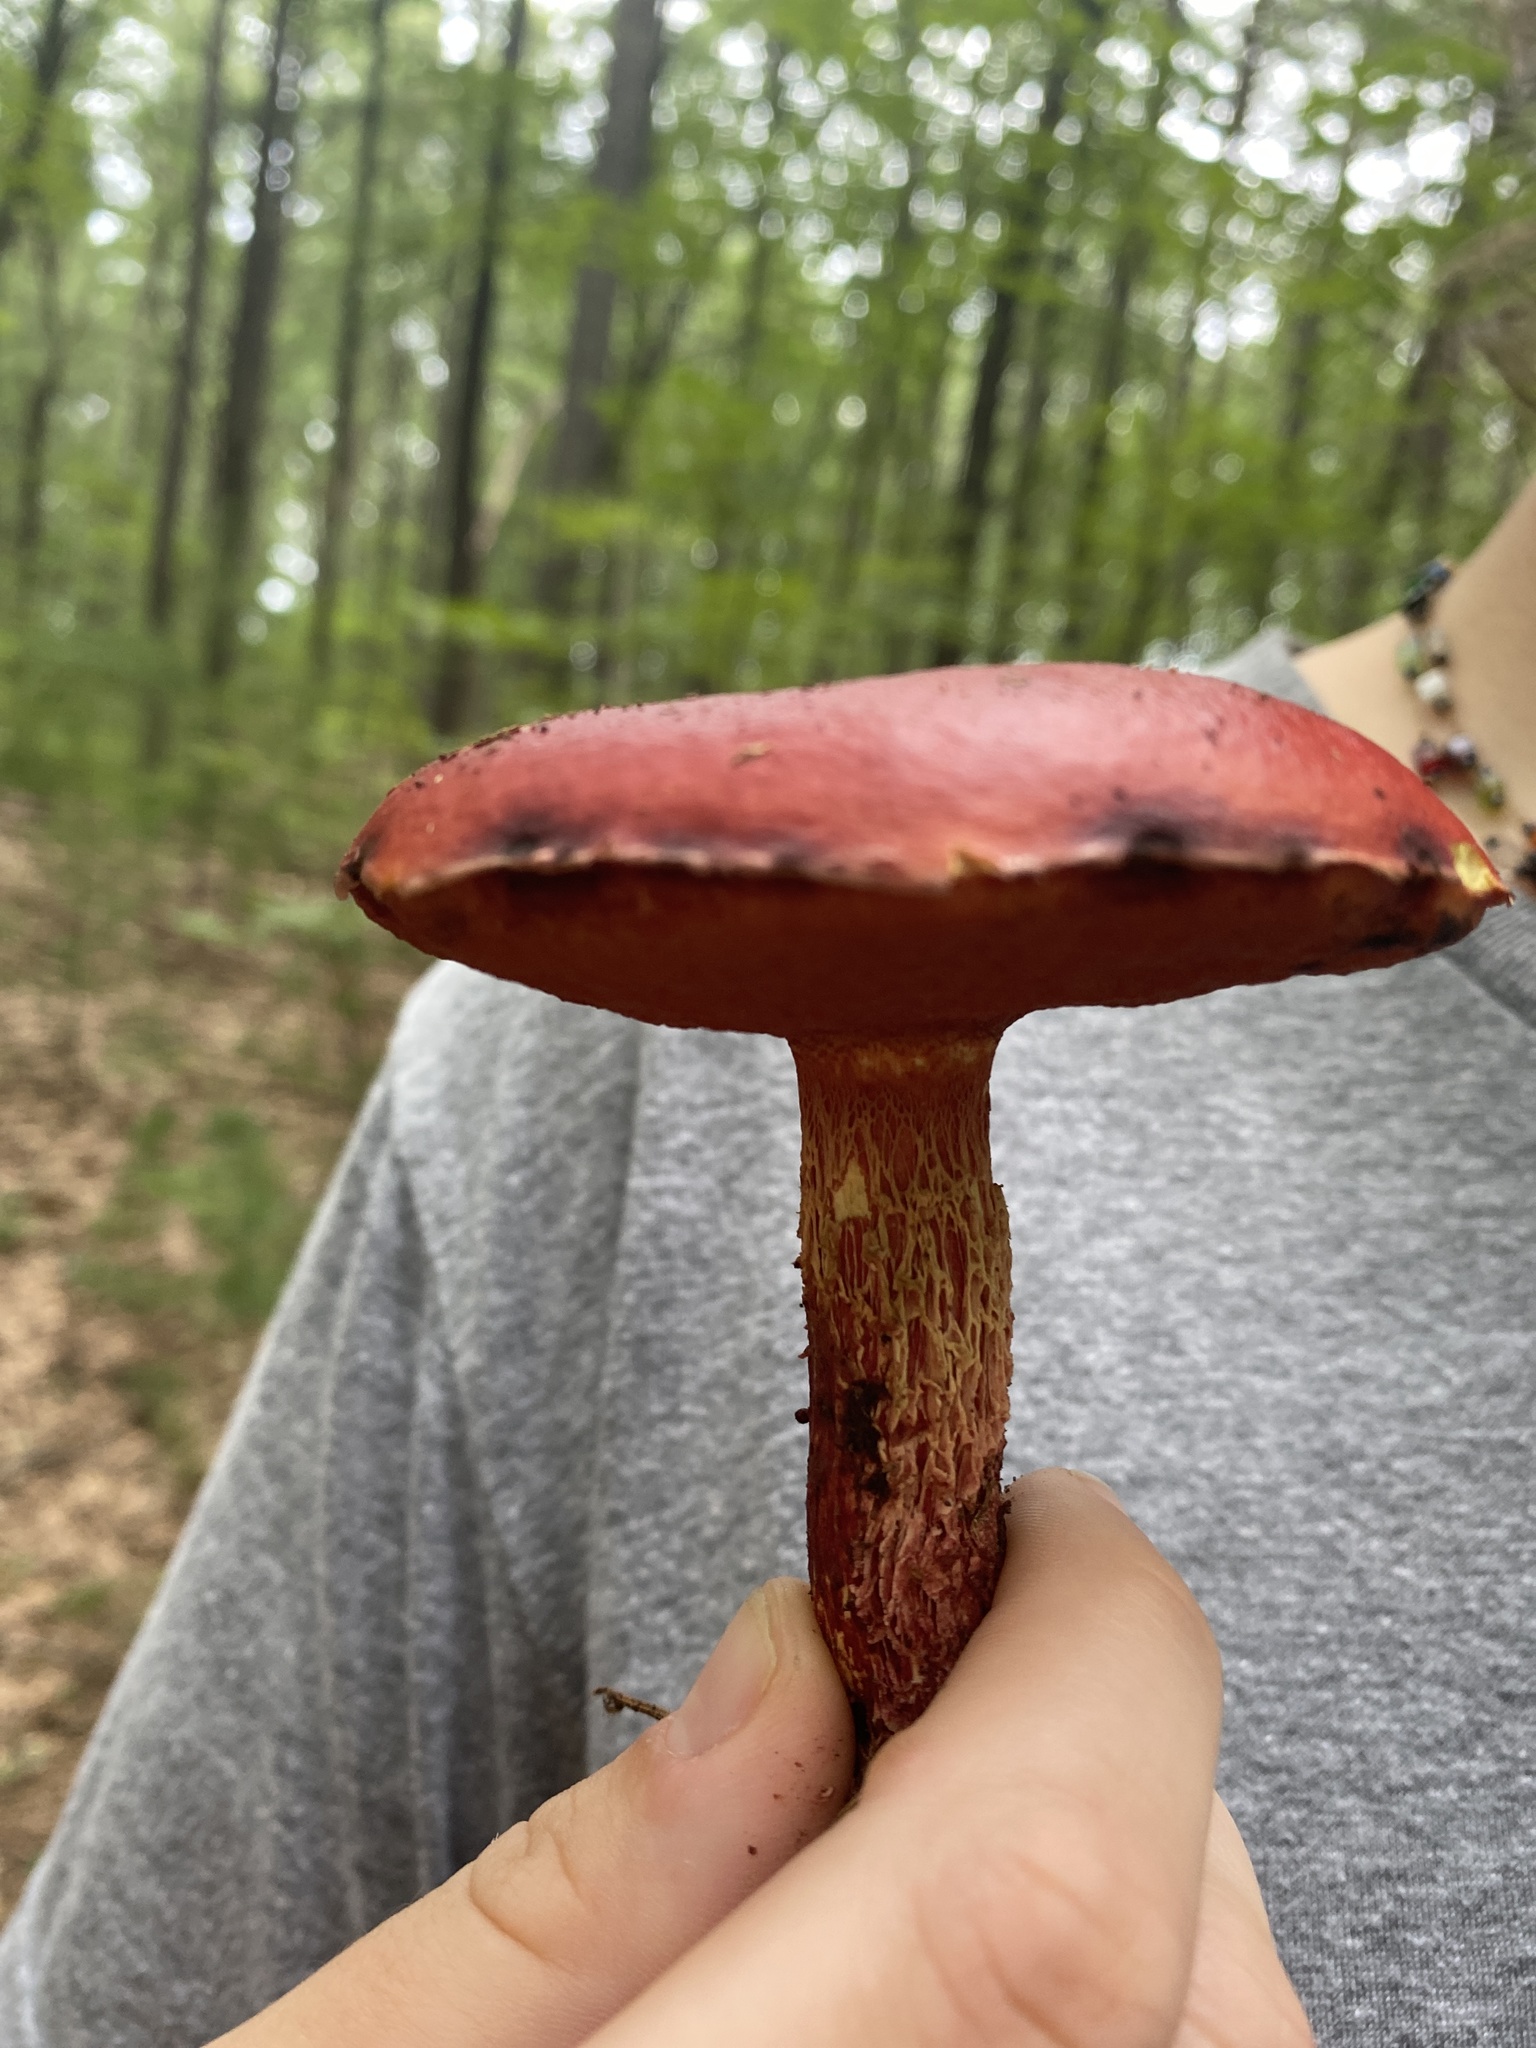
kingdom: Fungi
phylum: Basidiomycota
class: Agaricomycetes
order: Boletales
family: Boletaceae
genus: Butyriboletus
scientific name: Butyriboletus frostii
